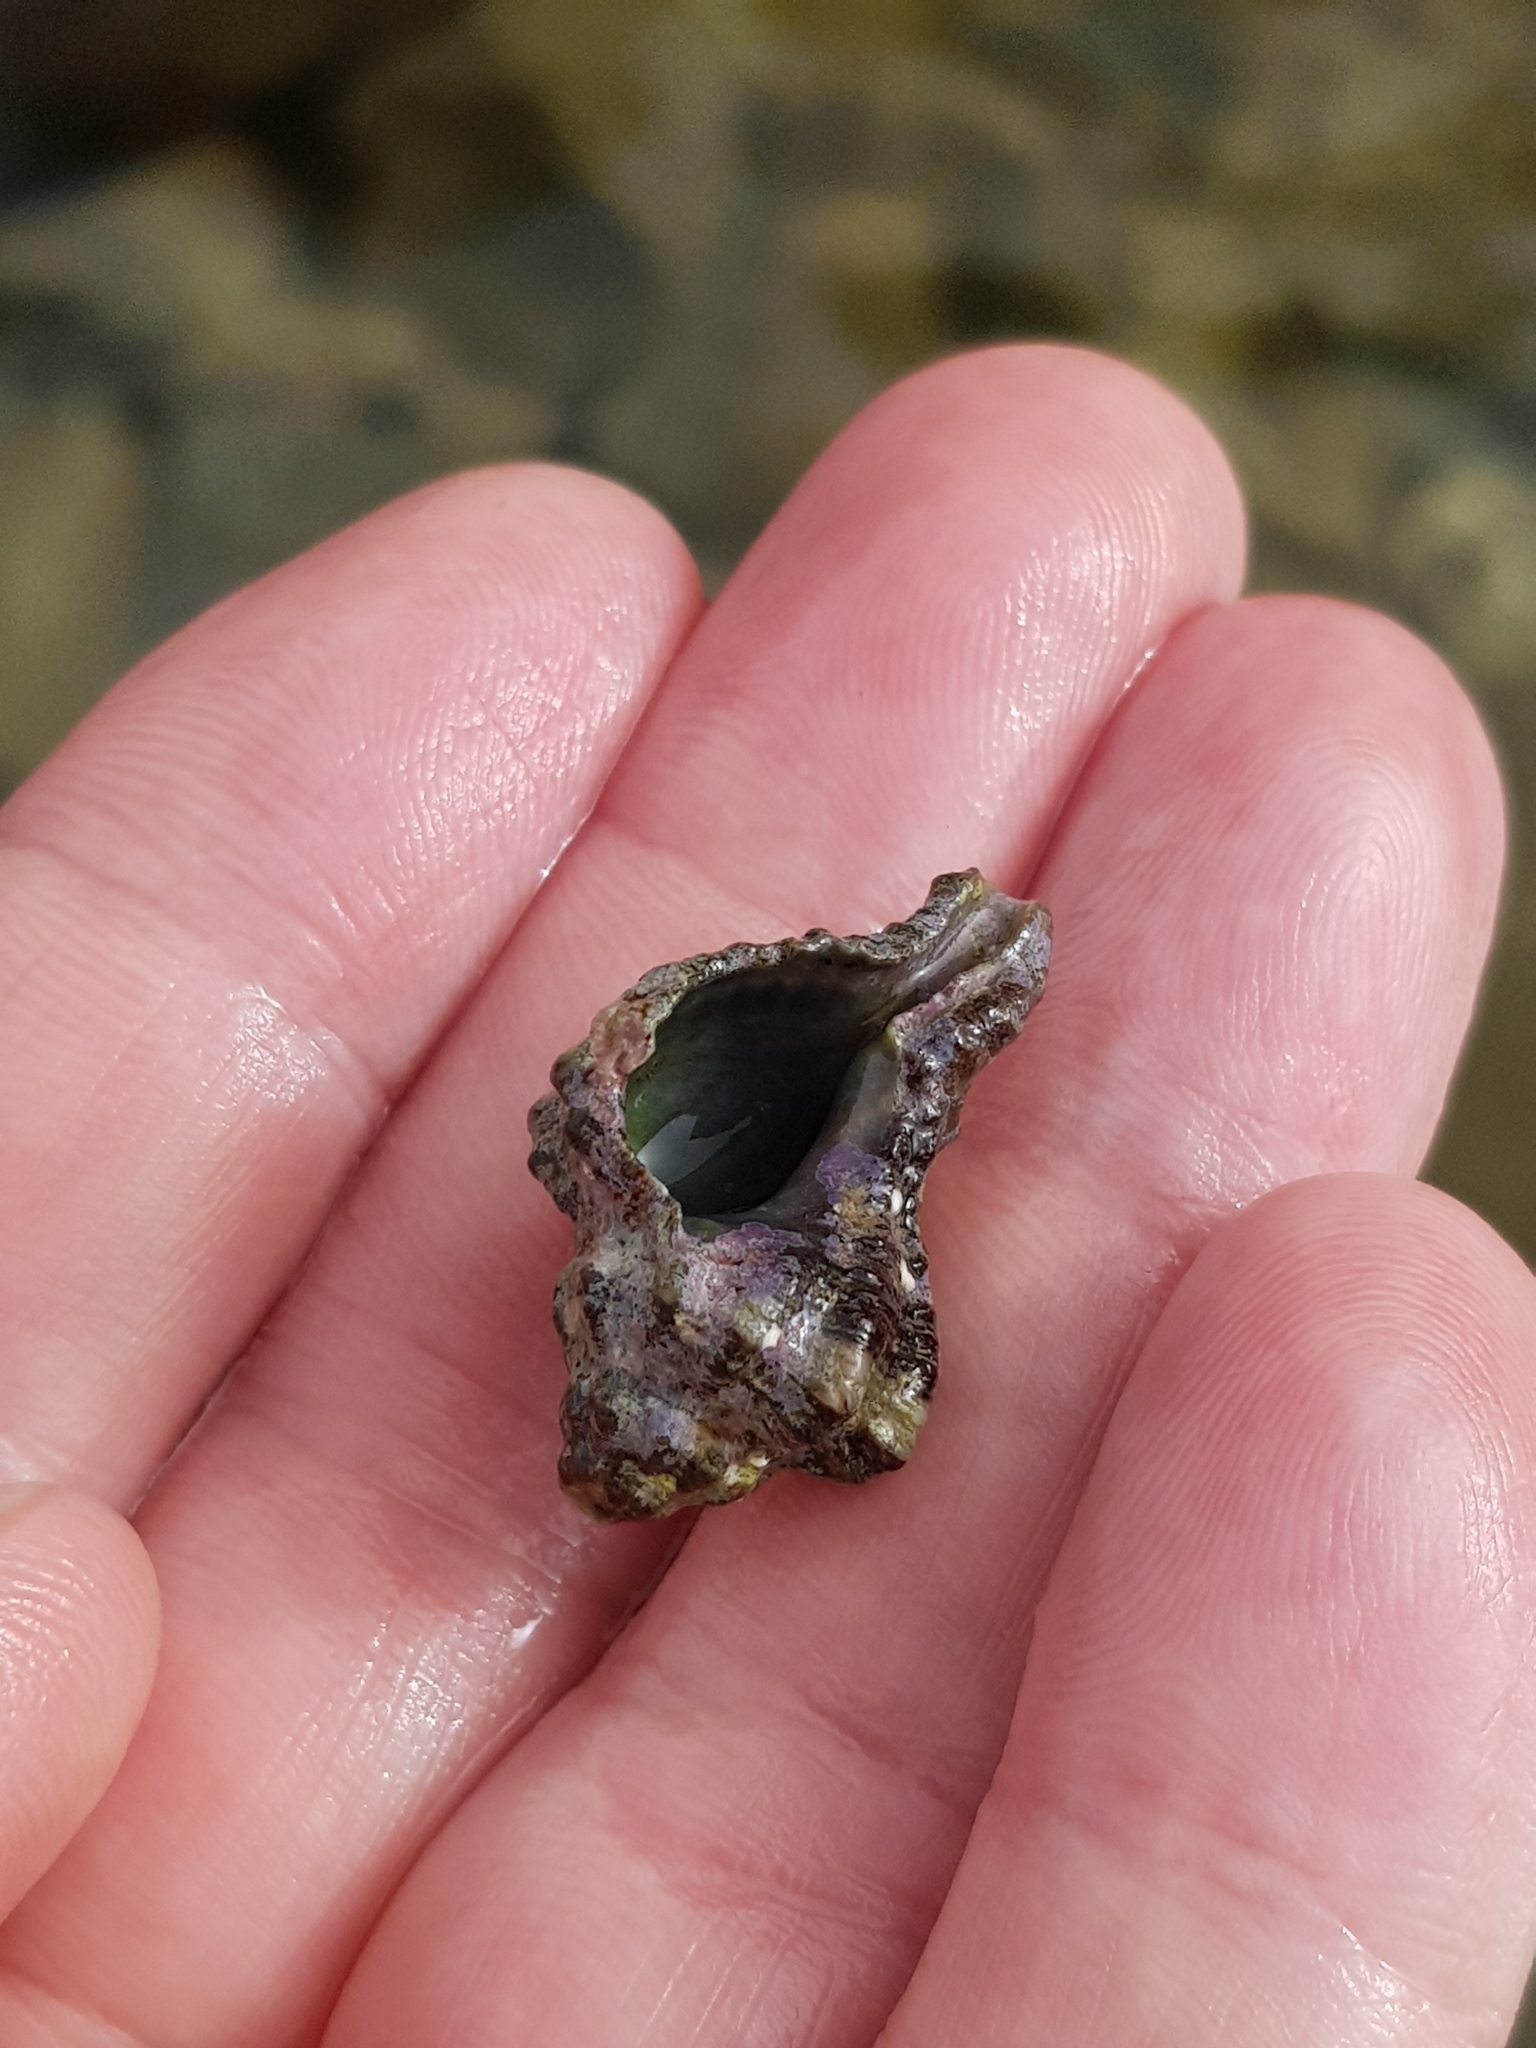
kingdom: Animalia
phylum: Mollusca
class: Gastropoda
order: Neogastropoda
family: Muricidae
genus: Hexaplex
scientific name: Hexaplex trunculus
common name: Banded dye-murex
